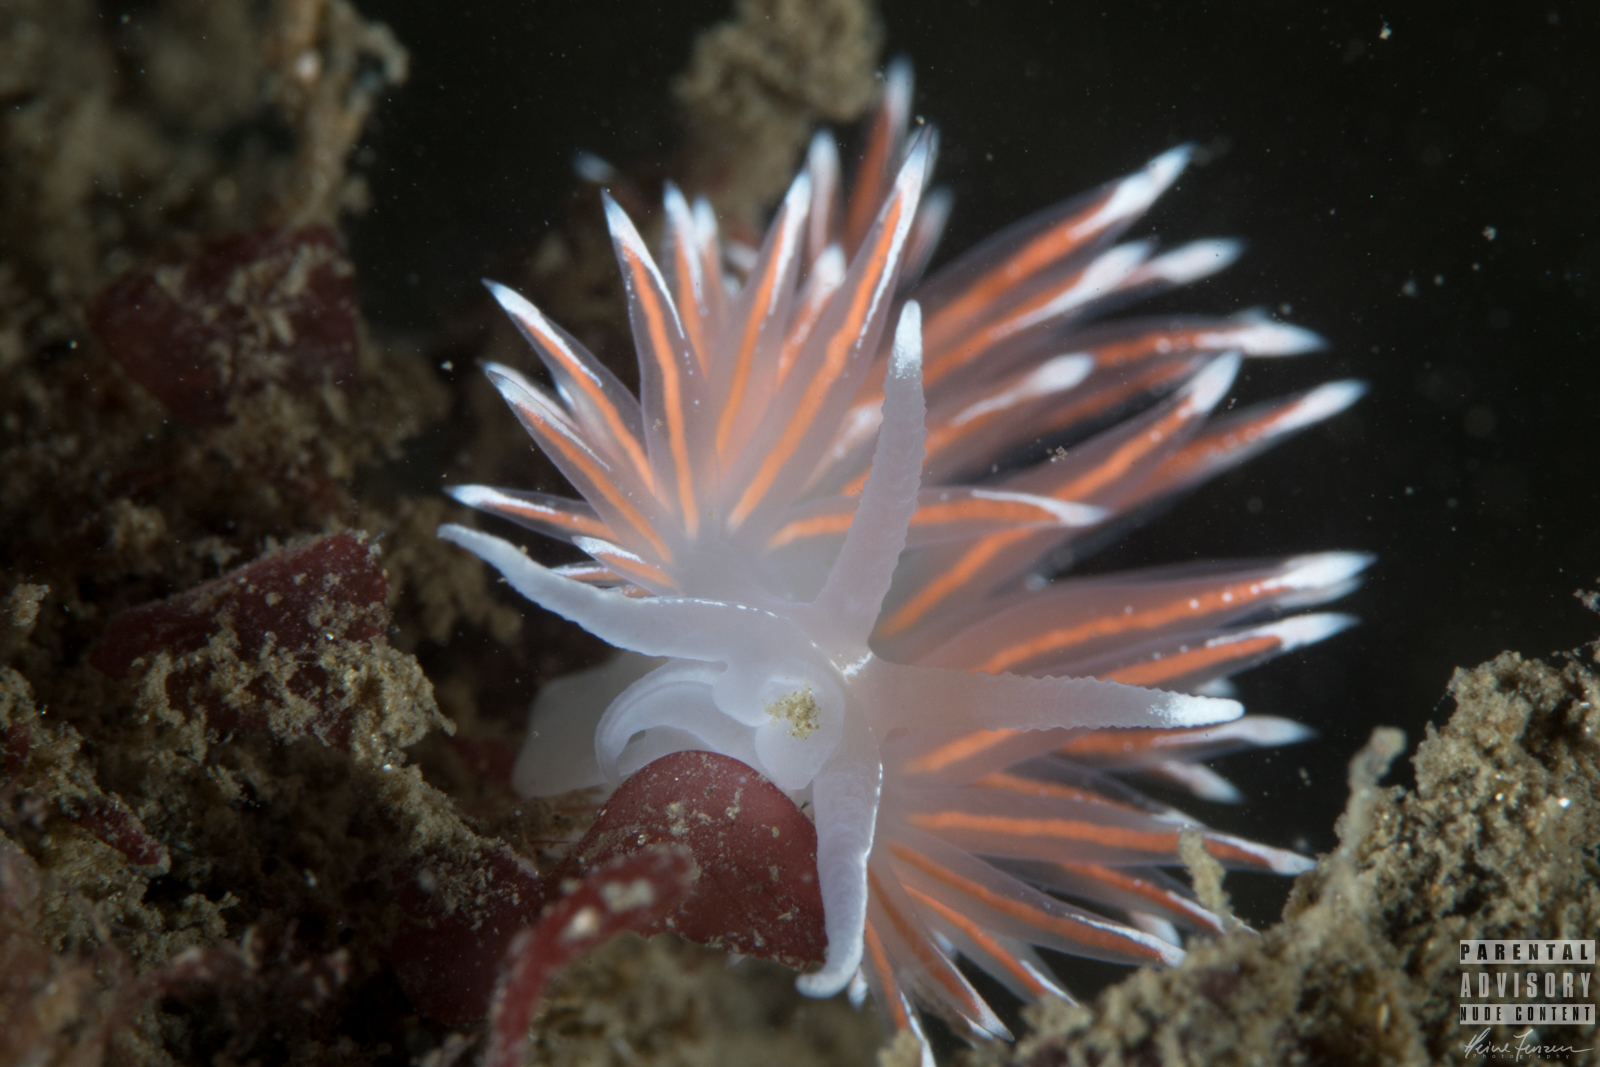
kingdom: Animalia
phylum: Mollusca
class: Gastropoda
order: Nudibranchia
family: Coryphellidae
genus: Coryphella
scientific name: Coryphella lineata
